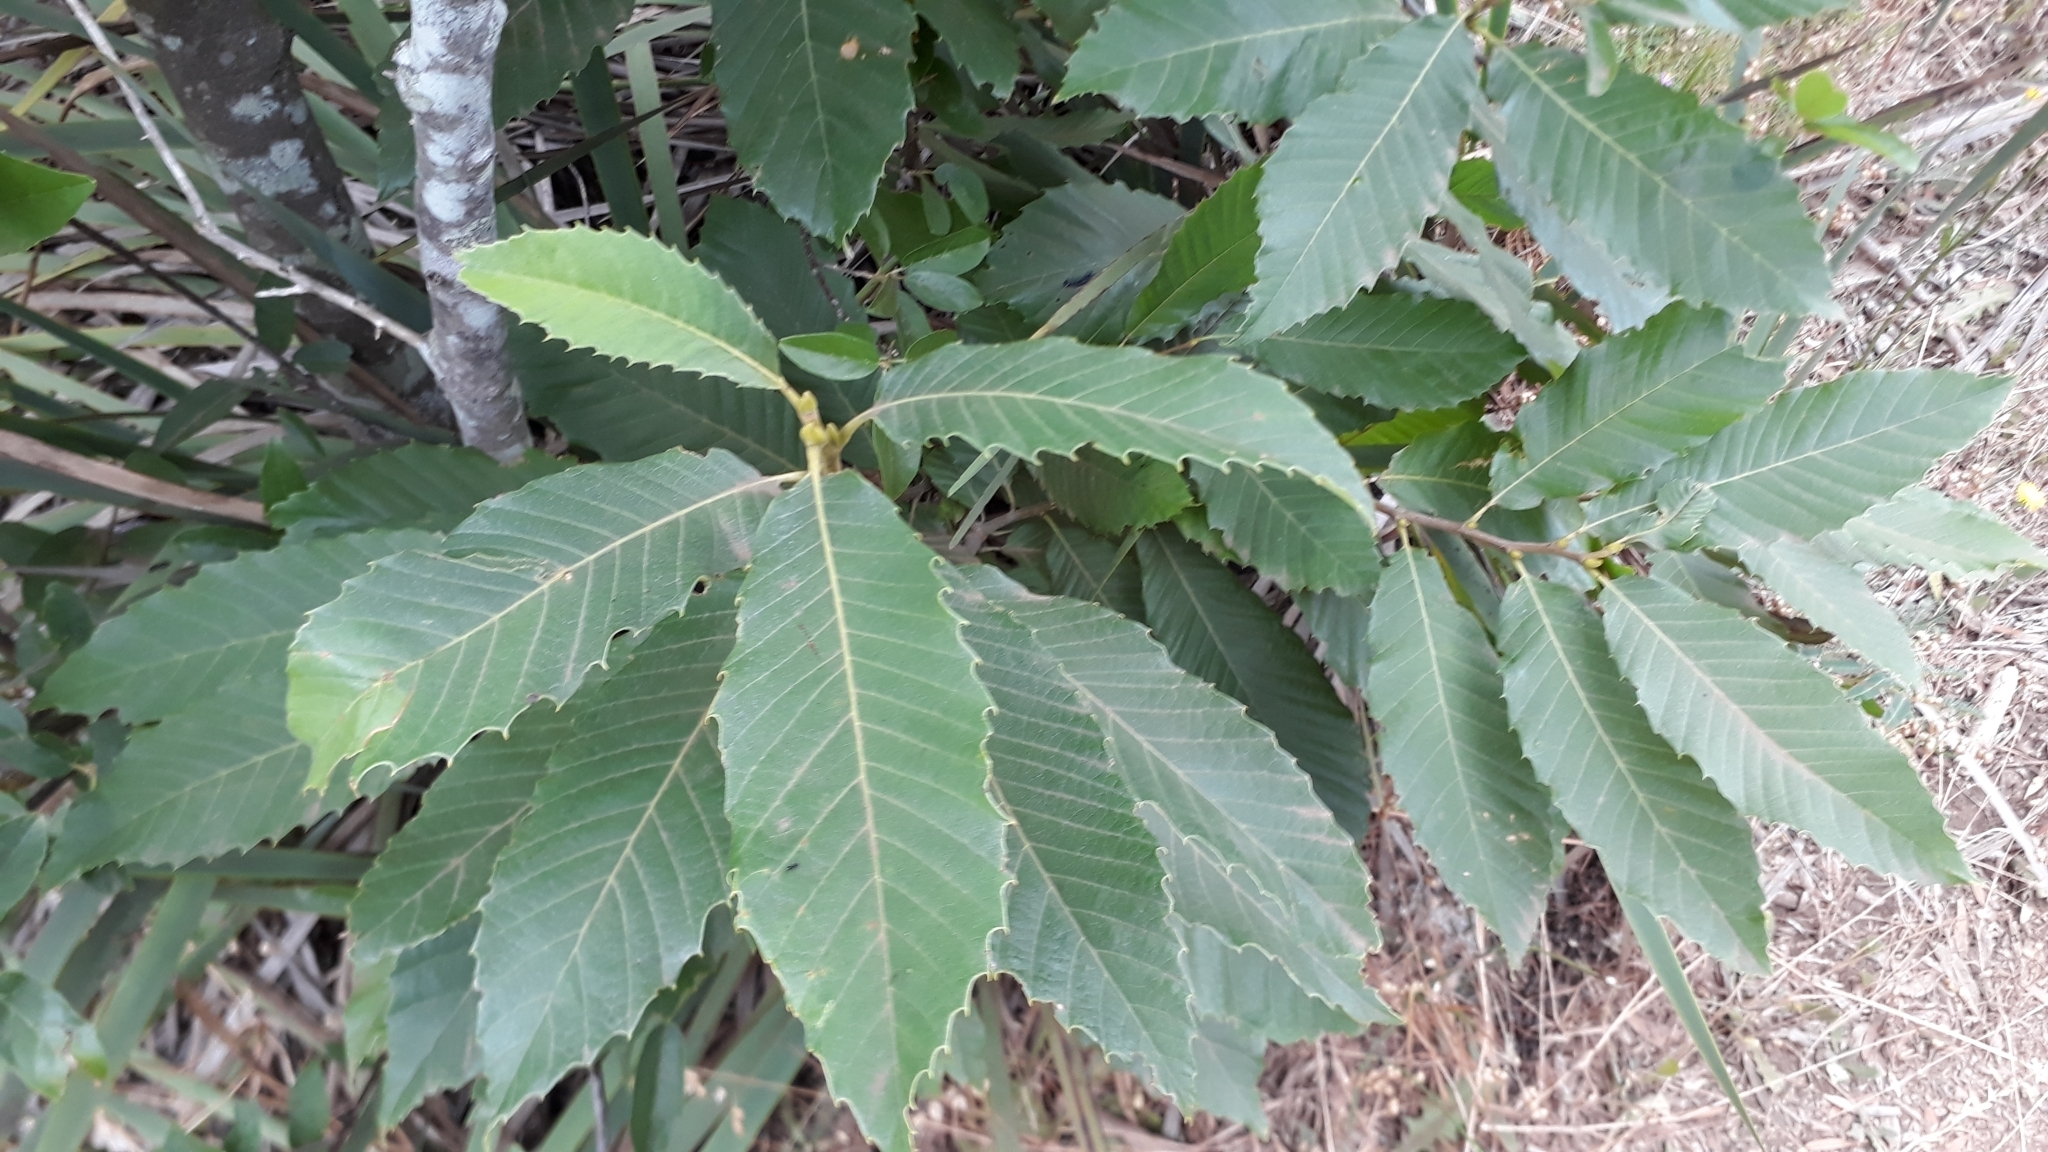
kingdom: Plantae
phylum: Tracheophyta
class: Magnoliopsida
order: Fagales
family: Fagaceae
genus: Castanea
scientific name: Castanea sativa
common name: Sweet chestnut
